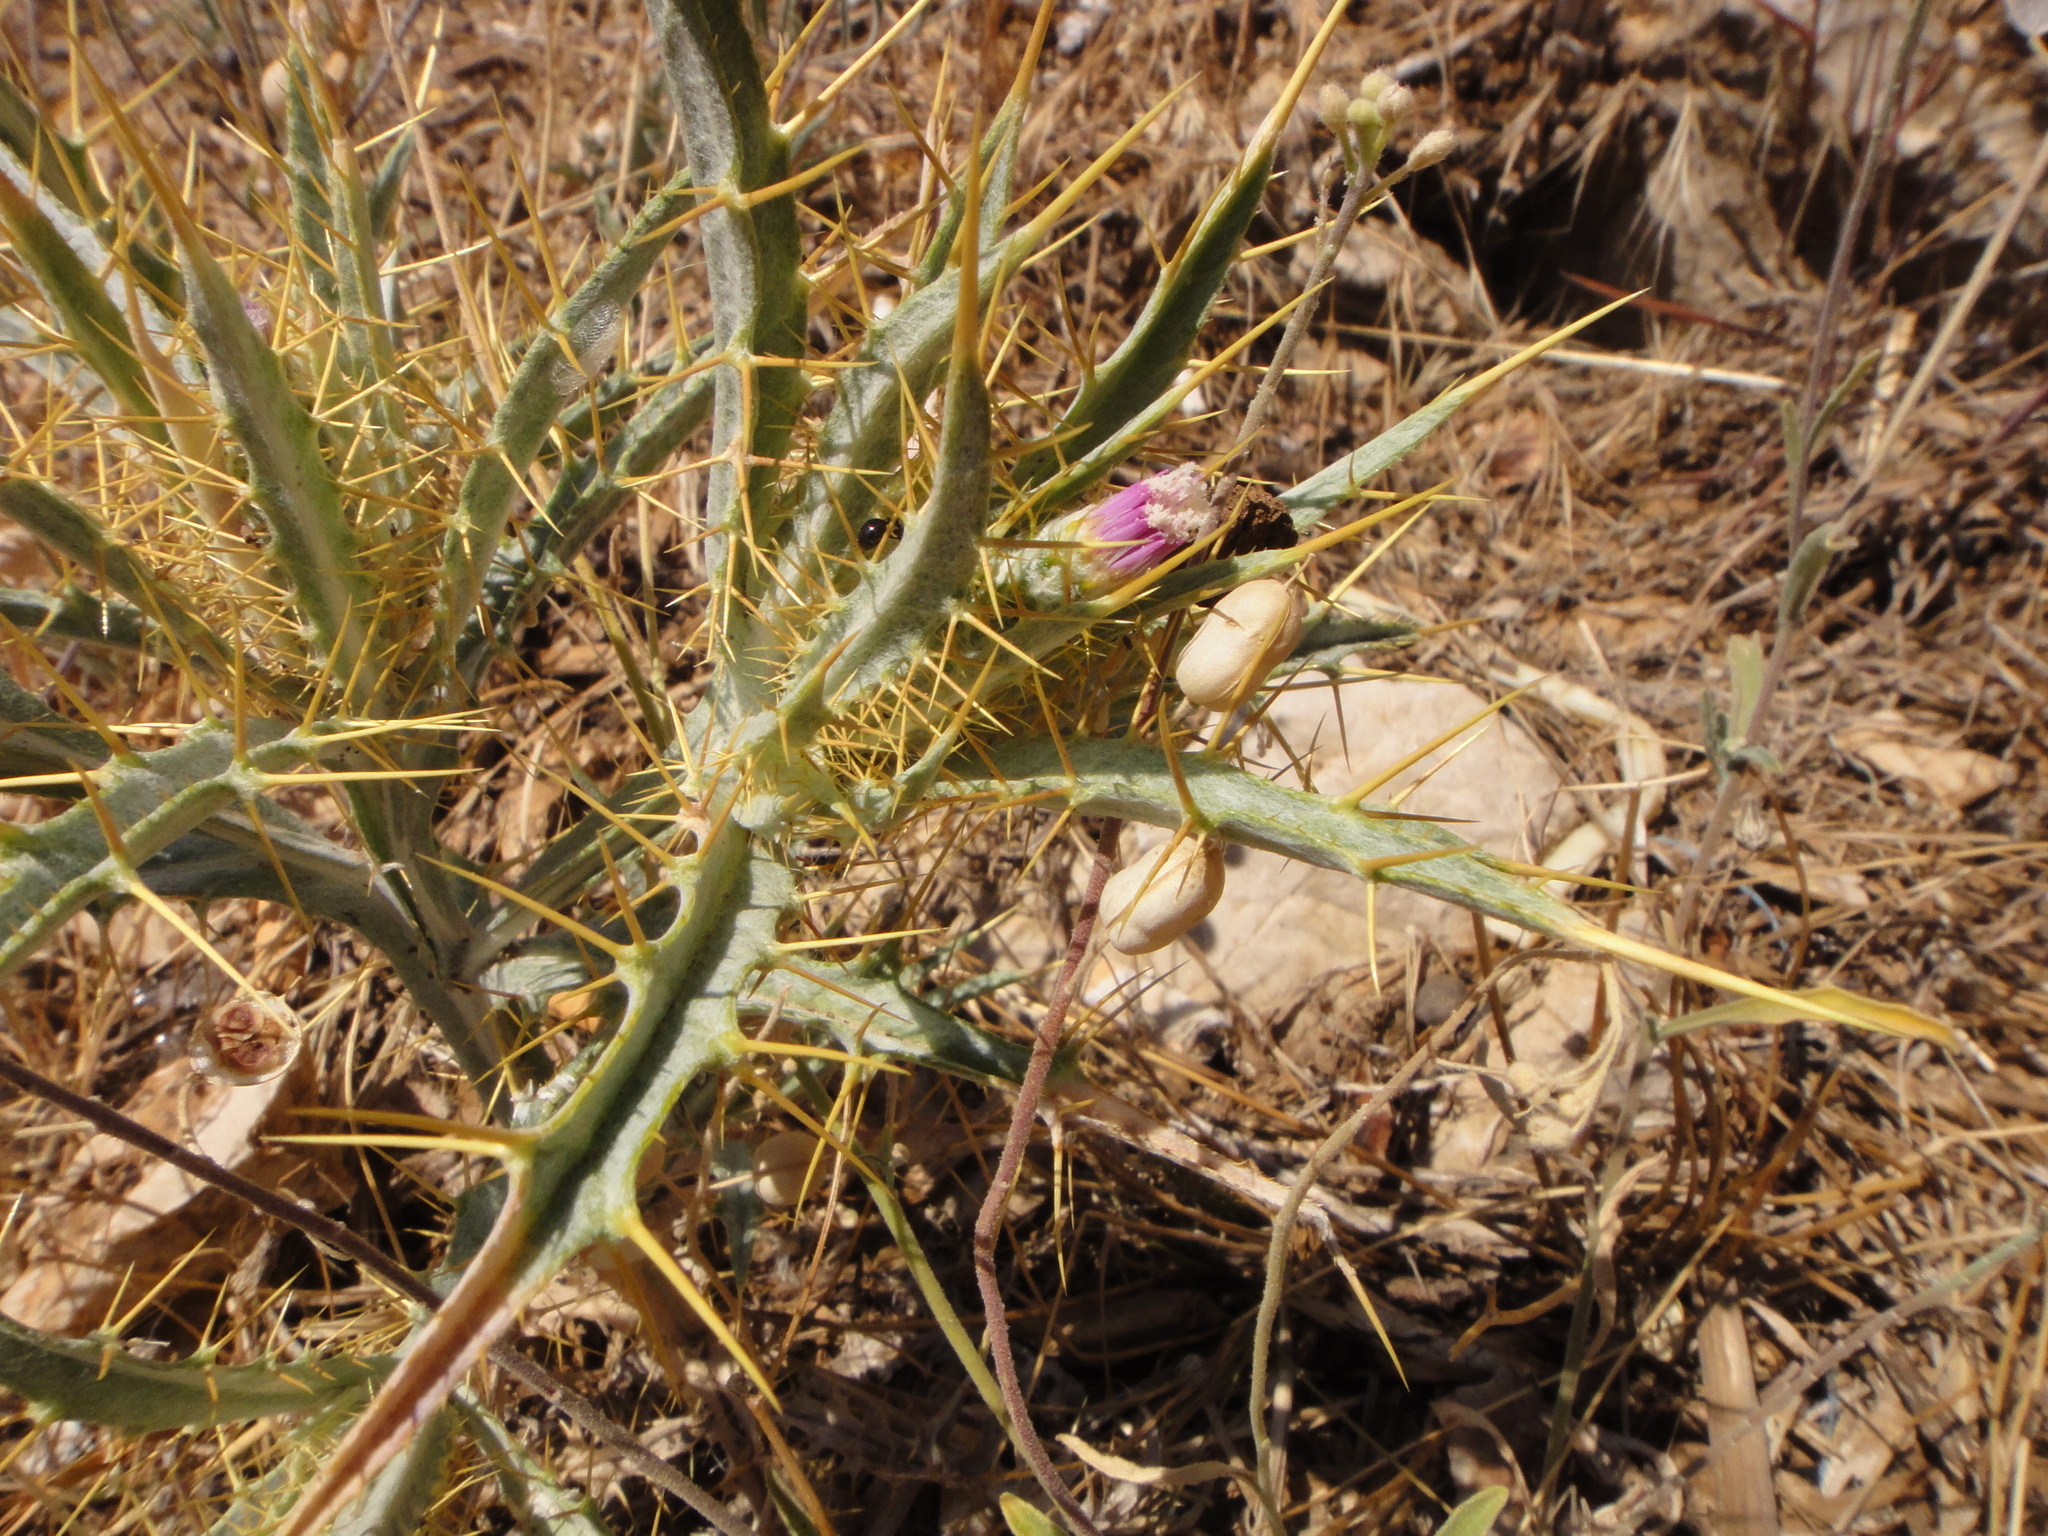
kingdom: Plantae
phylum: Tracheophyta
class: Magnoliopsida
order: Asterales
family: Asteraceae
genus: Picnomon
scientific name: Picnomon acarna
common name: Soldier thistle
